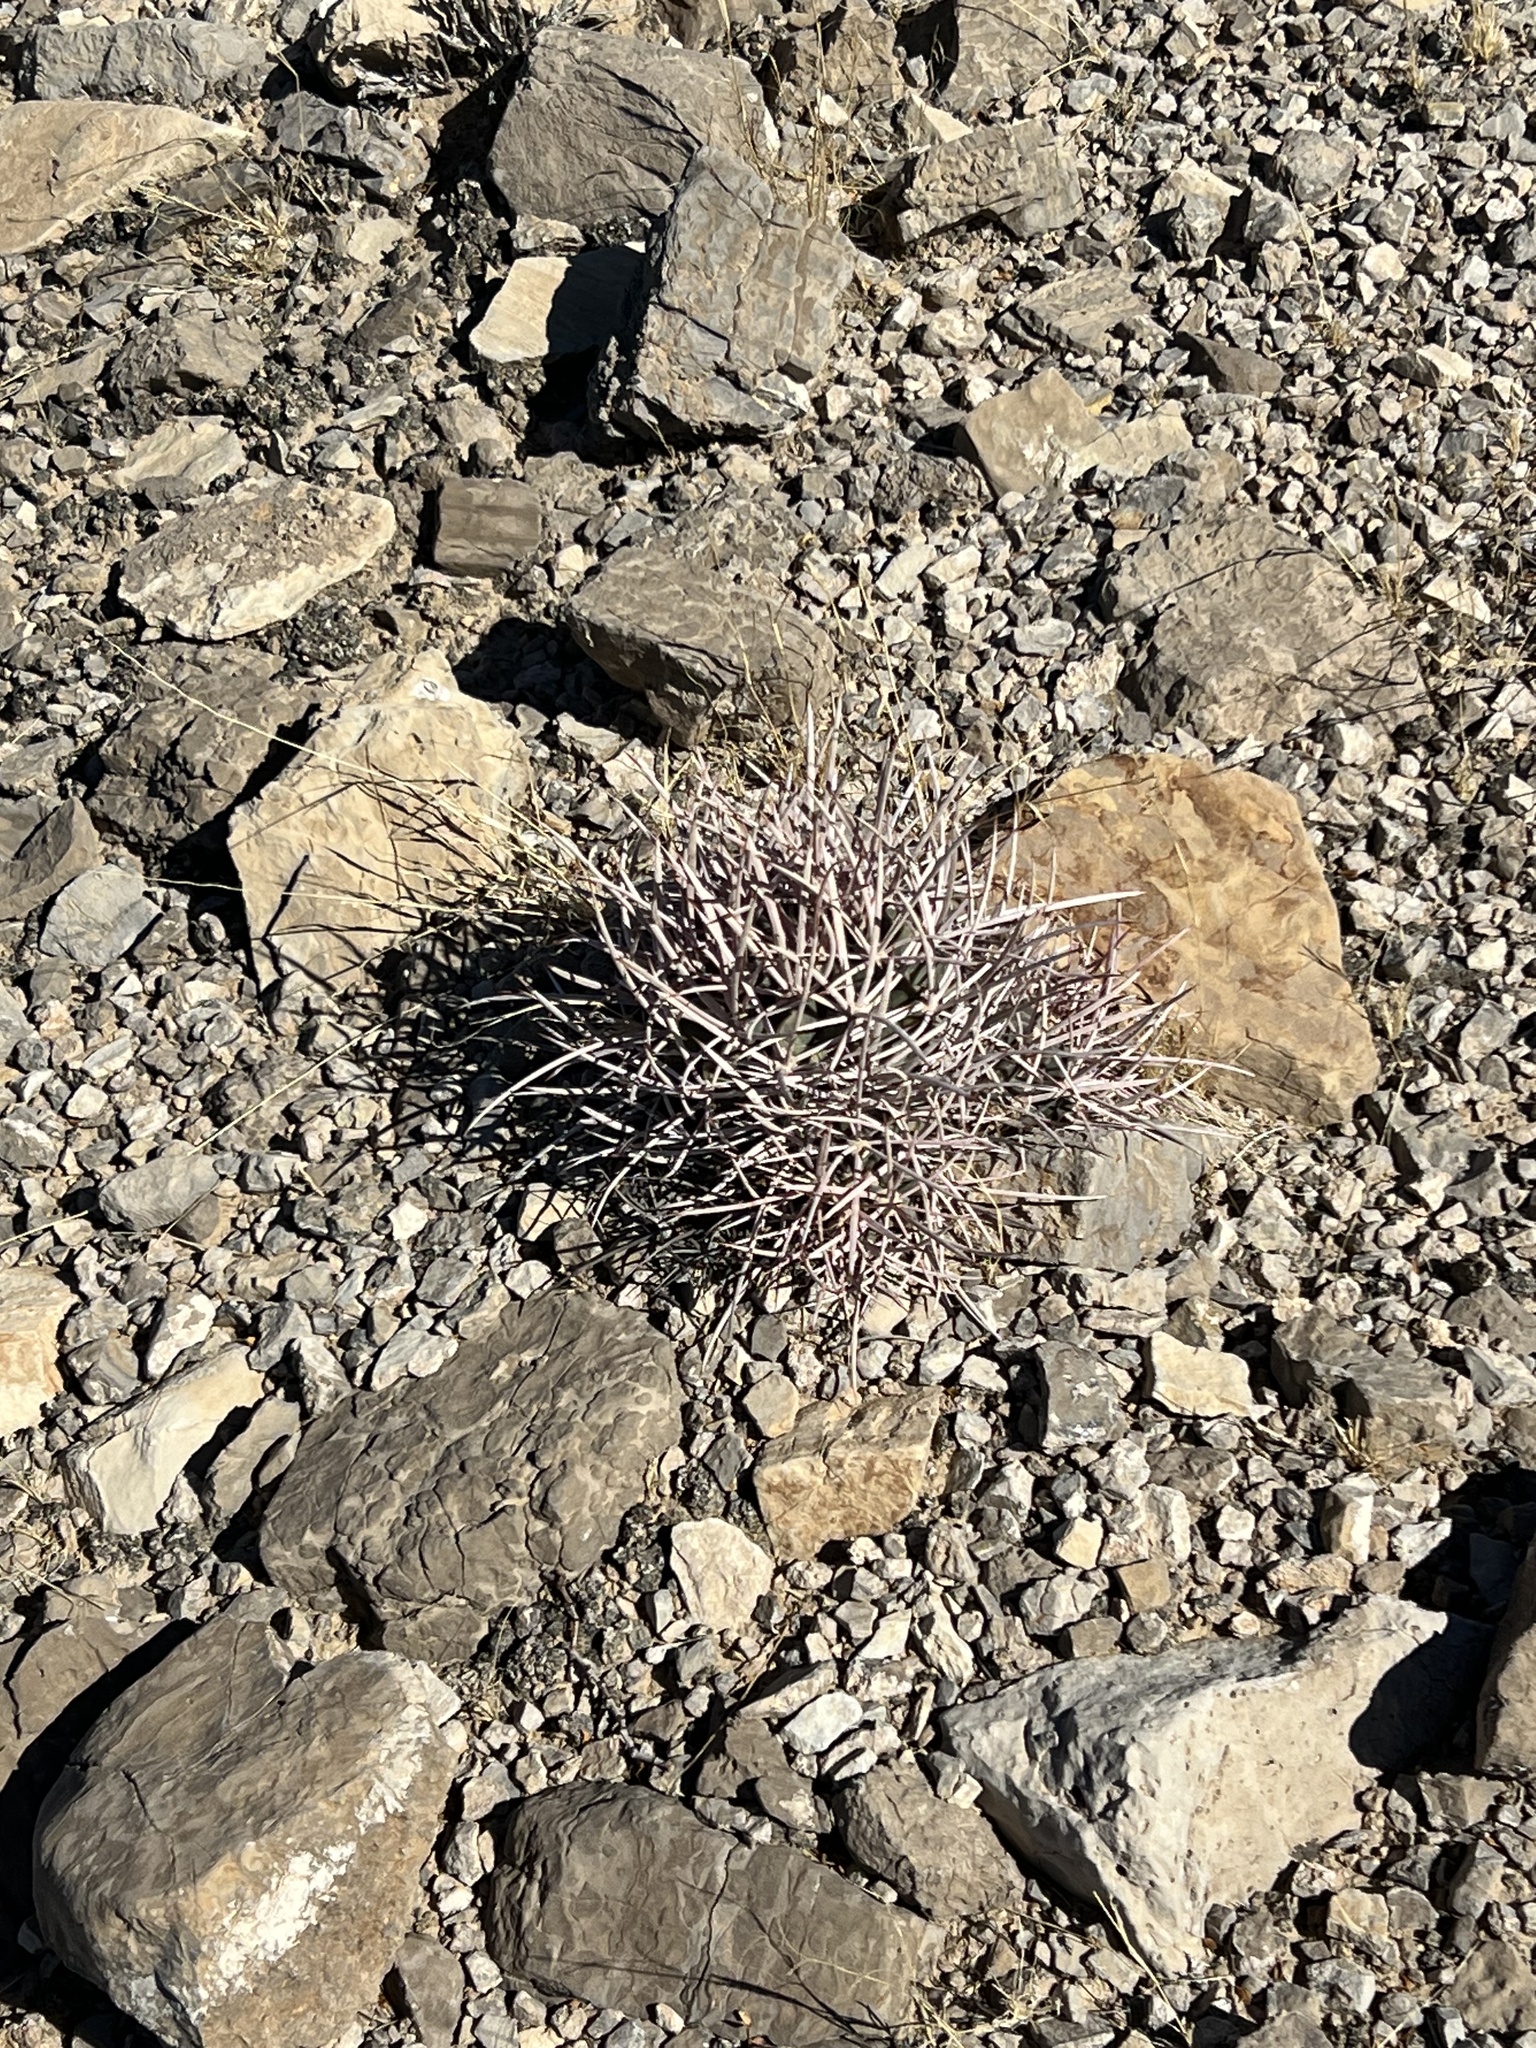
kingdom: Plantae
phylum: Tracheophyta
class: Magnoliopsida
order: Caryophyllales
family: Cactaceae
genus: Echinocactus
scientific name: Echinocactus polycephalus
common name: Cottontop cactus
